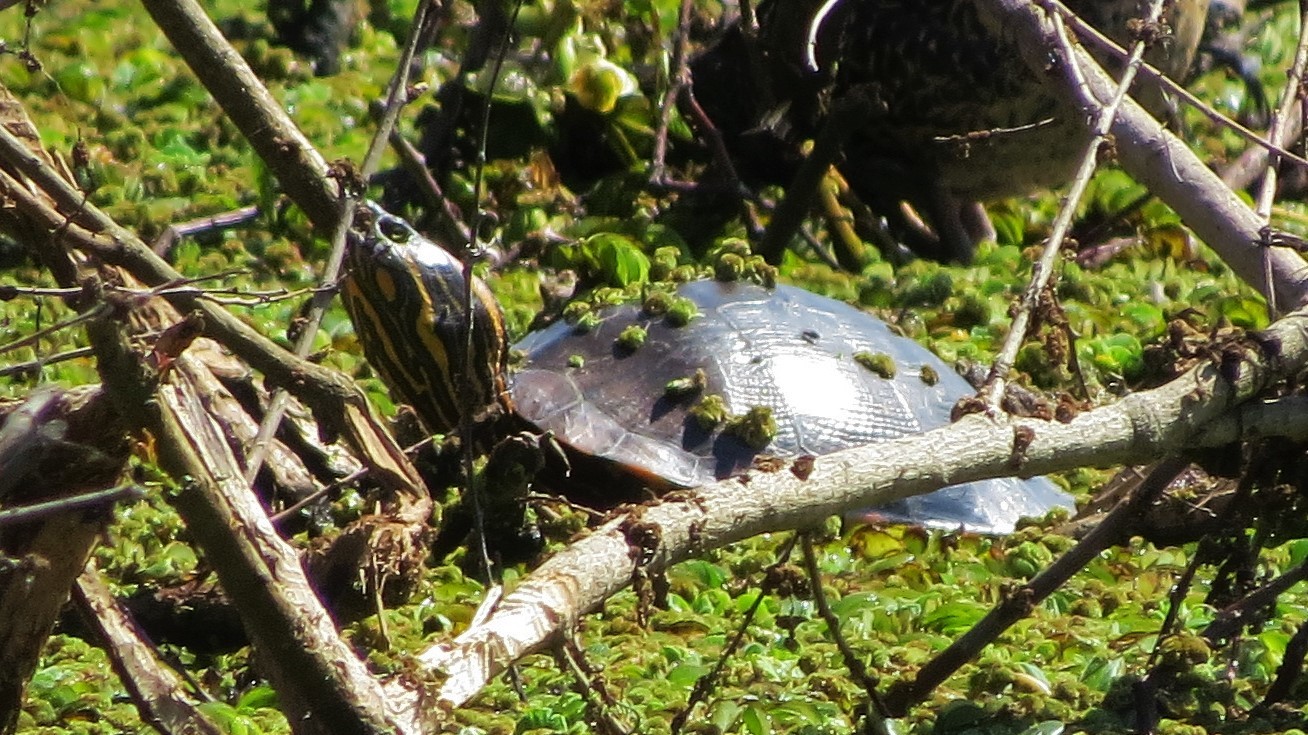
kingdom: Animalia
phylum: Chordata
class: Testudines
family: Emydidae
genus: Trachemys
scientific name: Trachemys dorbigni
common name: Black-bellied slider
